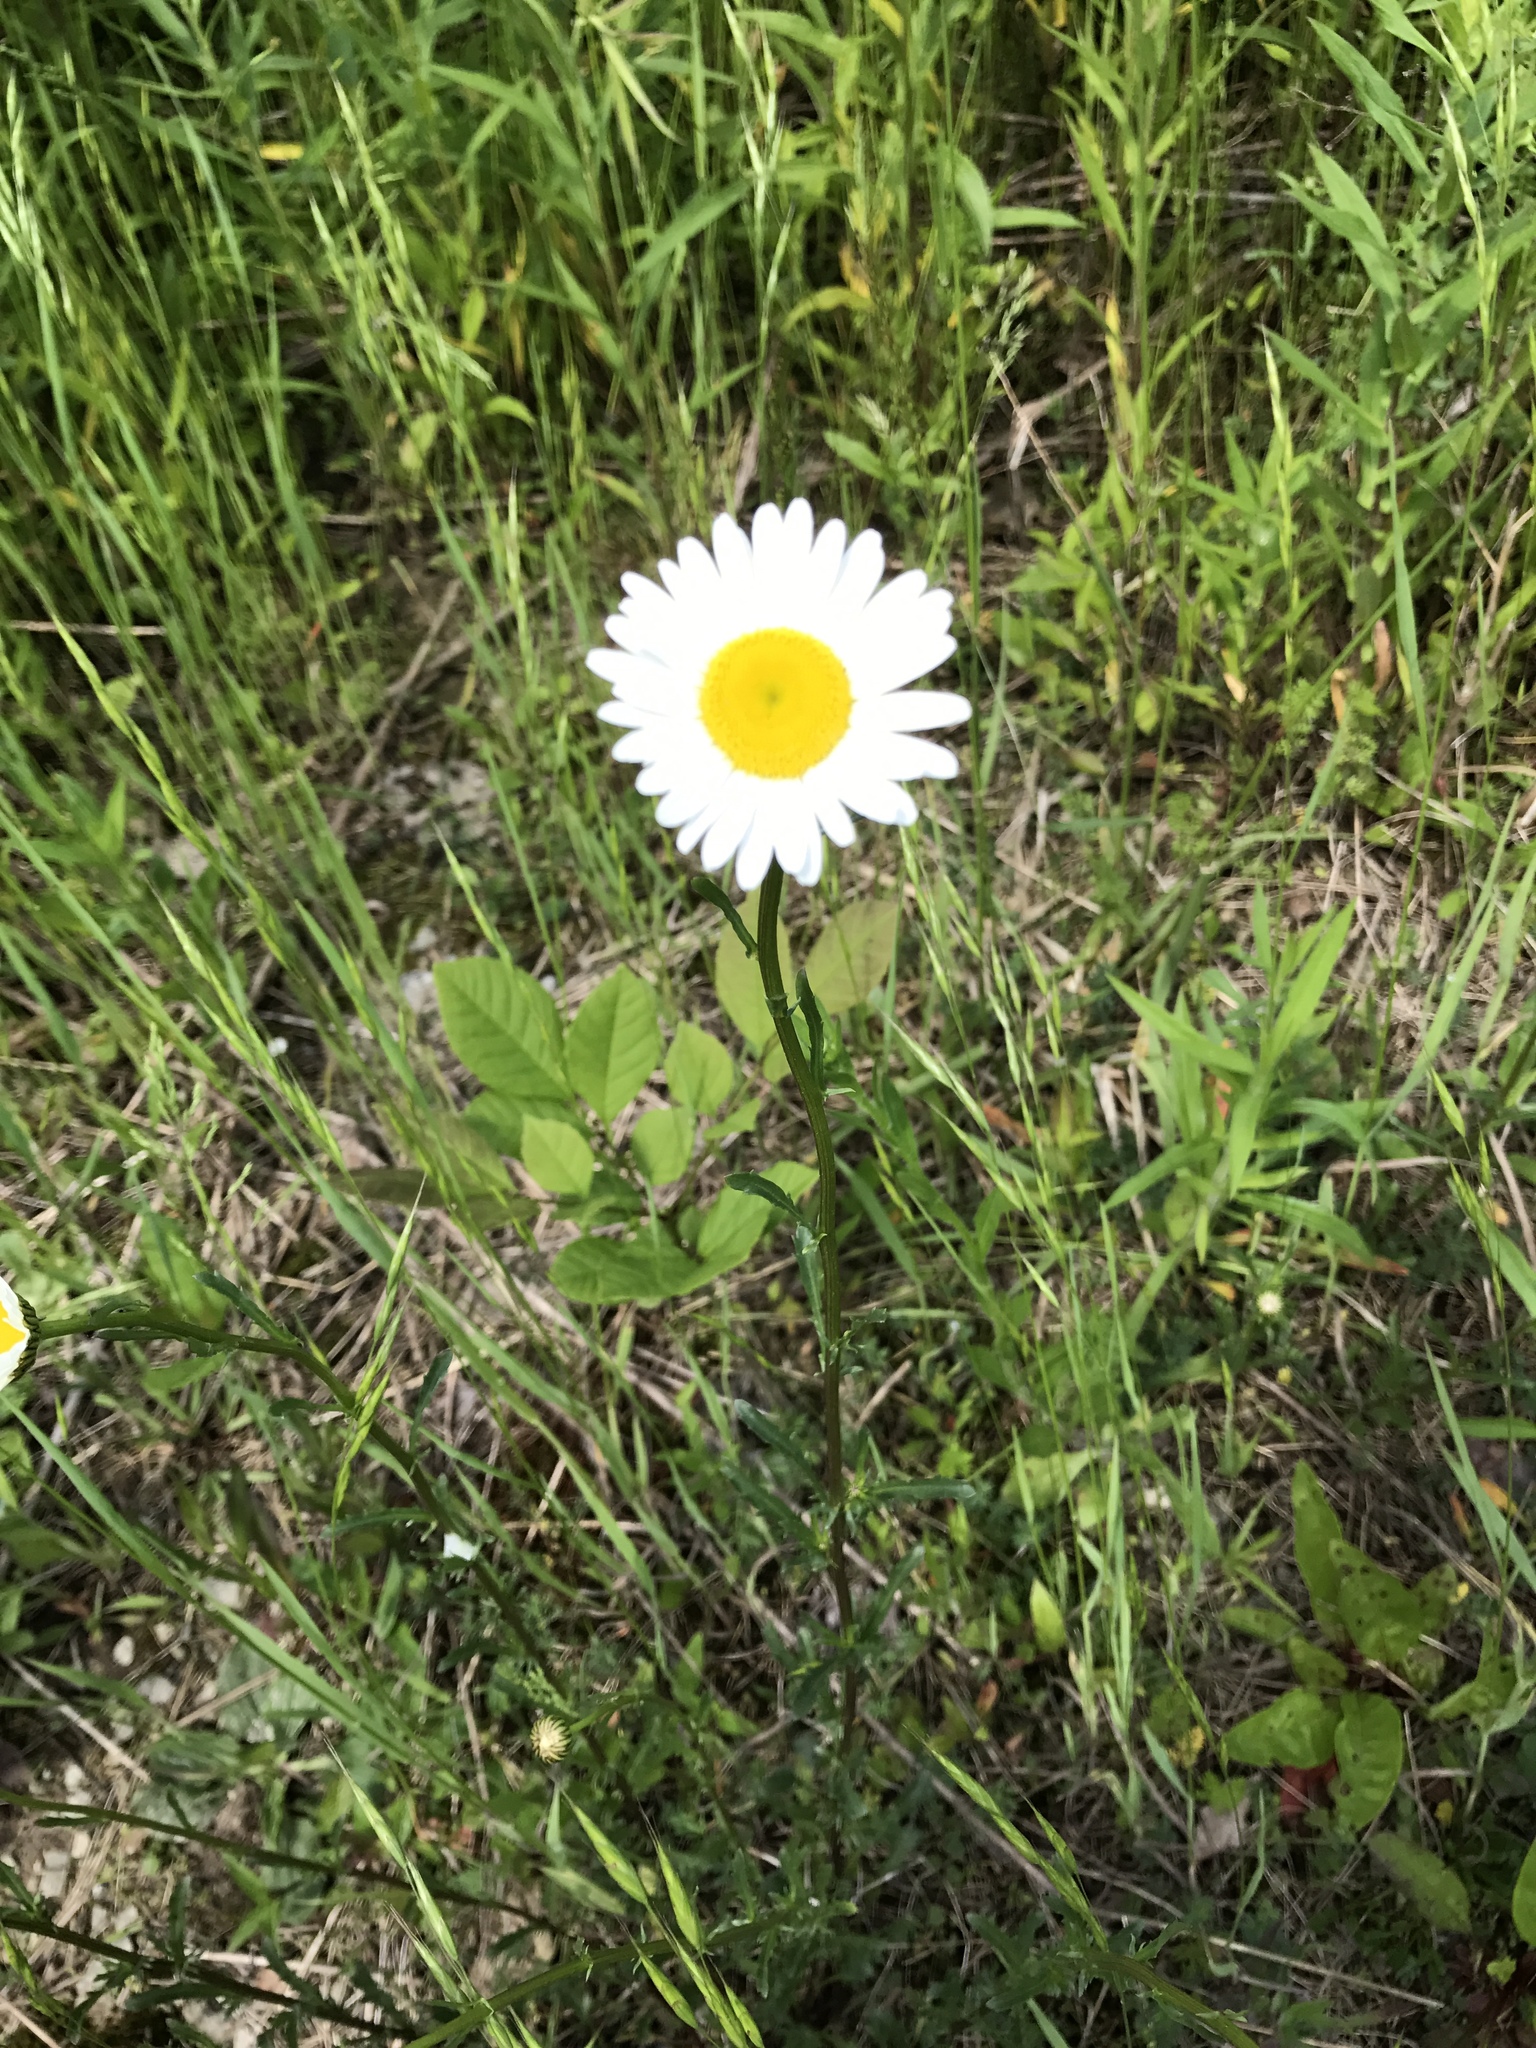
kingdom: Plantae
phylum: Tracheophyta
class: Magnoliopsida
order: Asterales
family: Asteraceae
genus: Leucanthemum
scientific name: Leucanthemum vulgare
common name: Oxeye daisy
